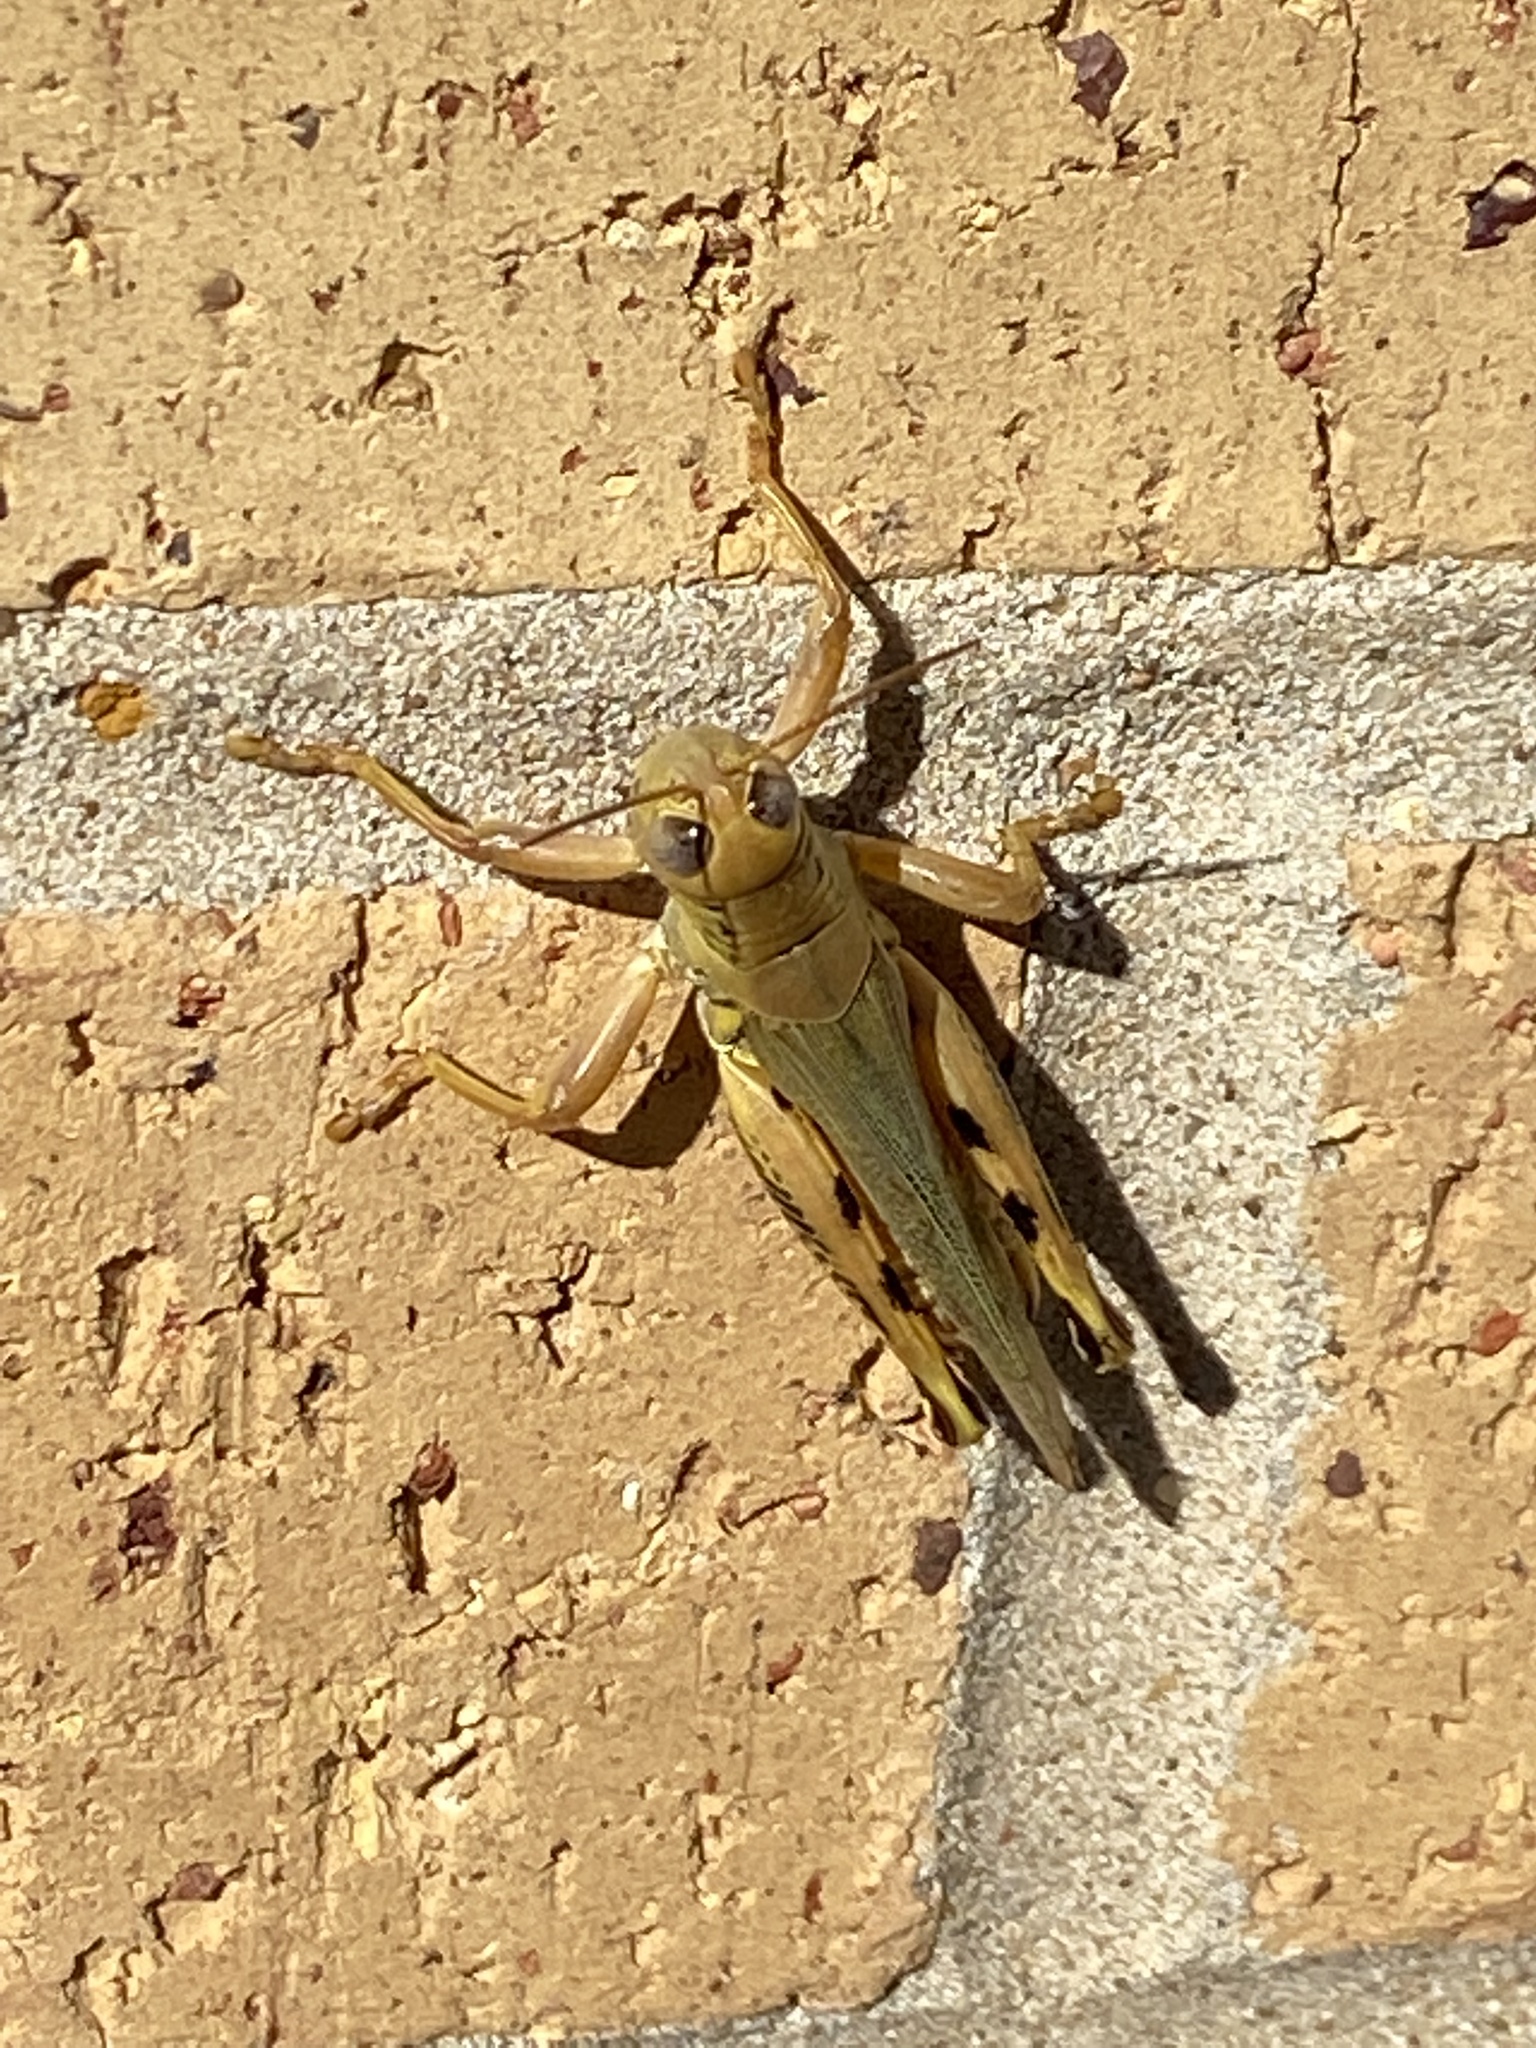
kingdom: Animalia
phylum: Arthropoda
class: Insecta
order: Orthoptera
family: Acrididae
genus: Melanoplus
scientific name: Melanoplus differentialis
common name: Differential grasshopper
